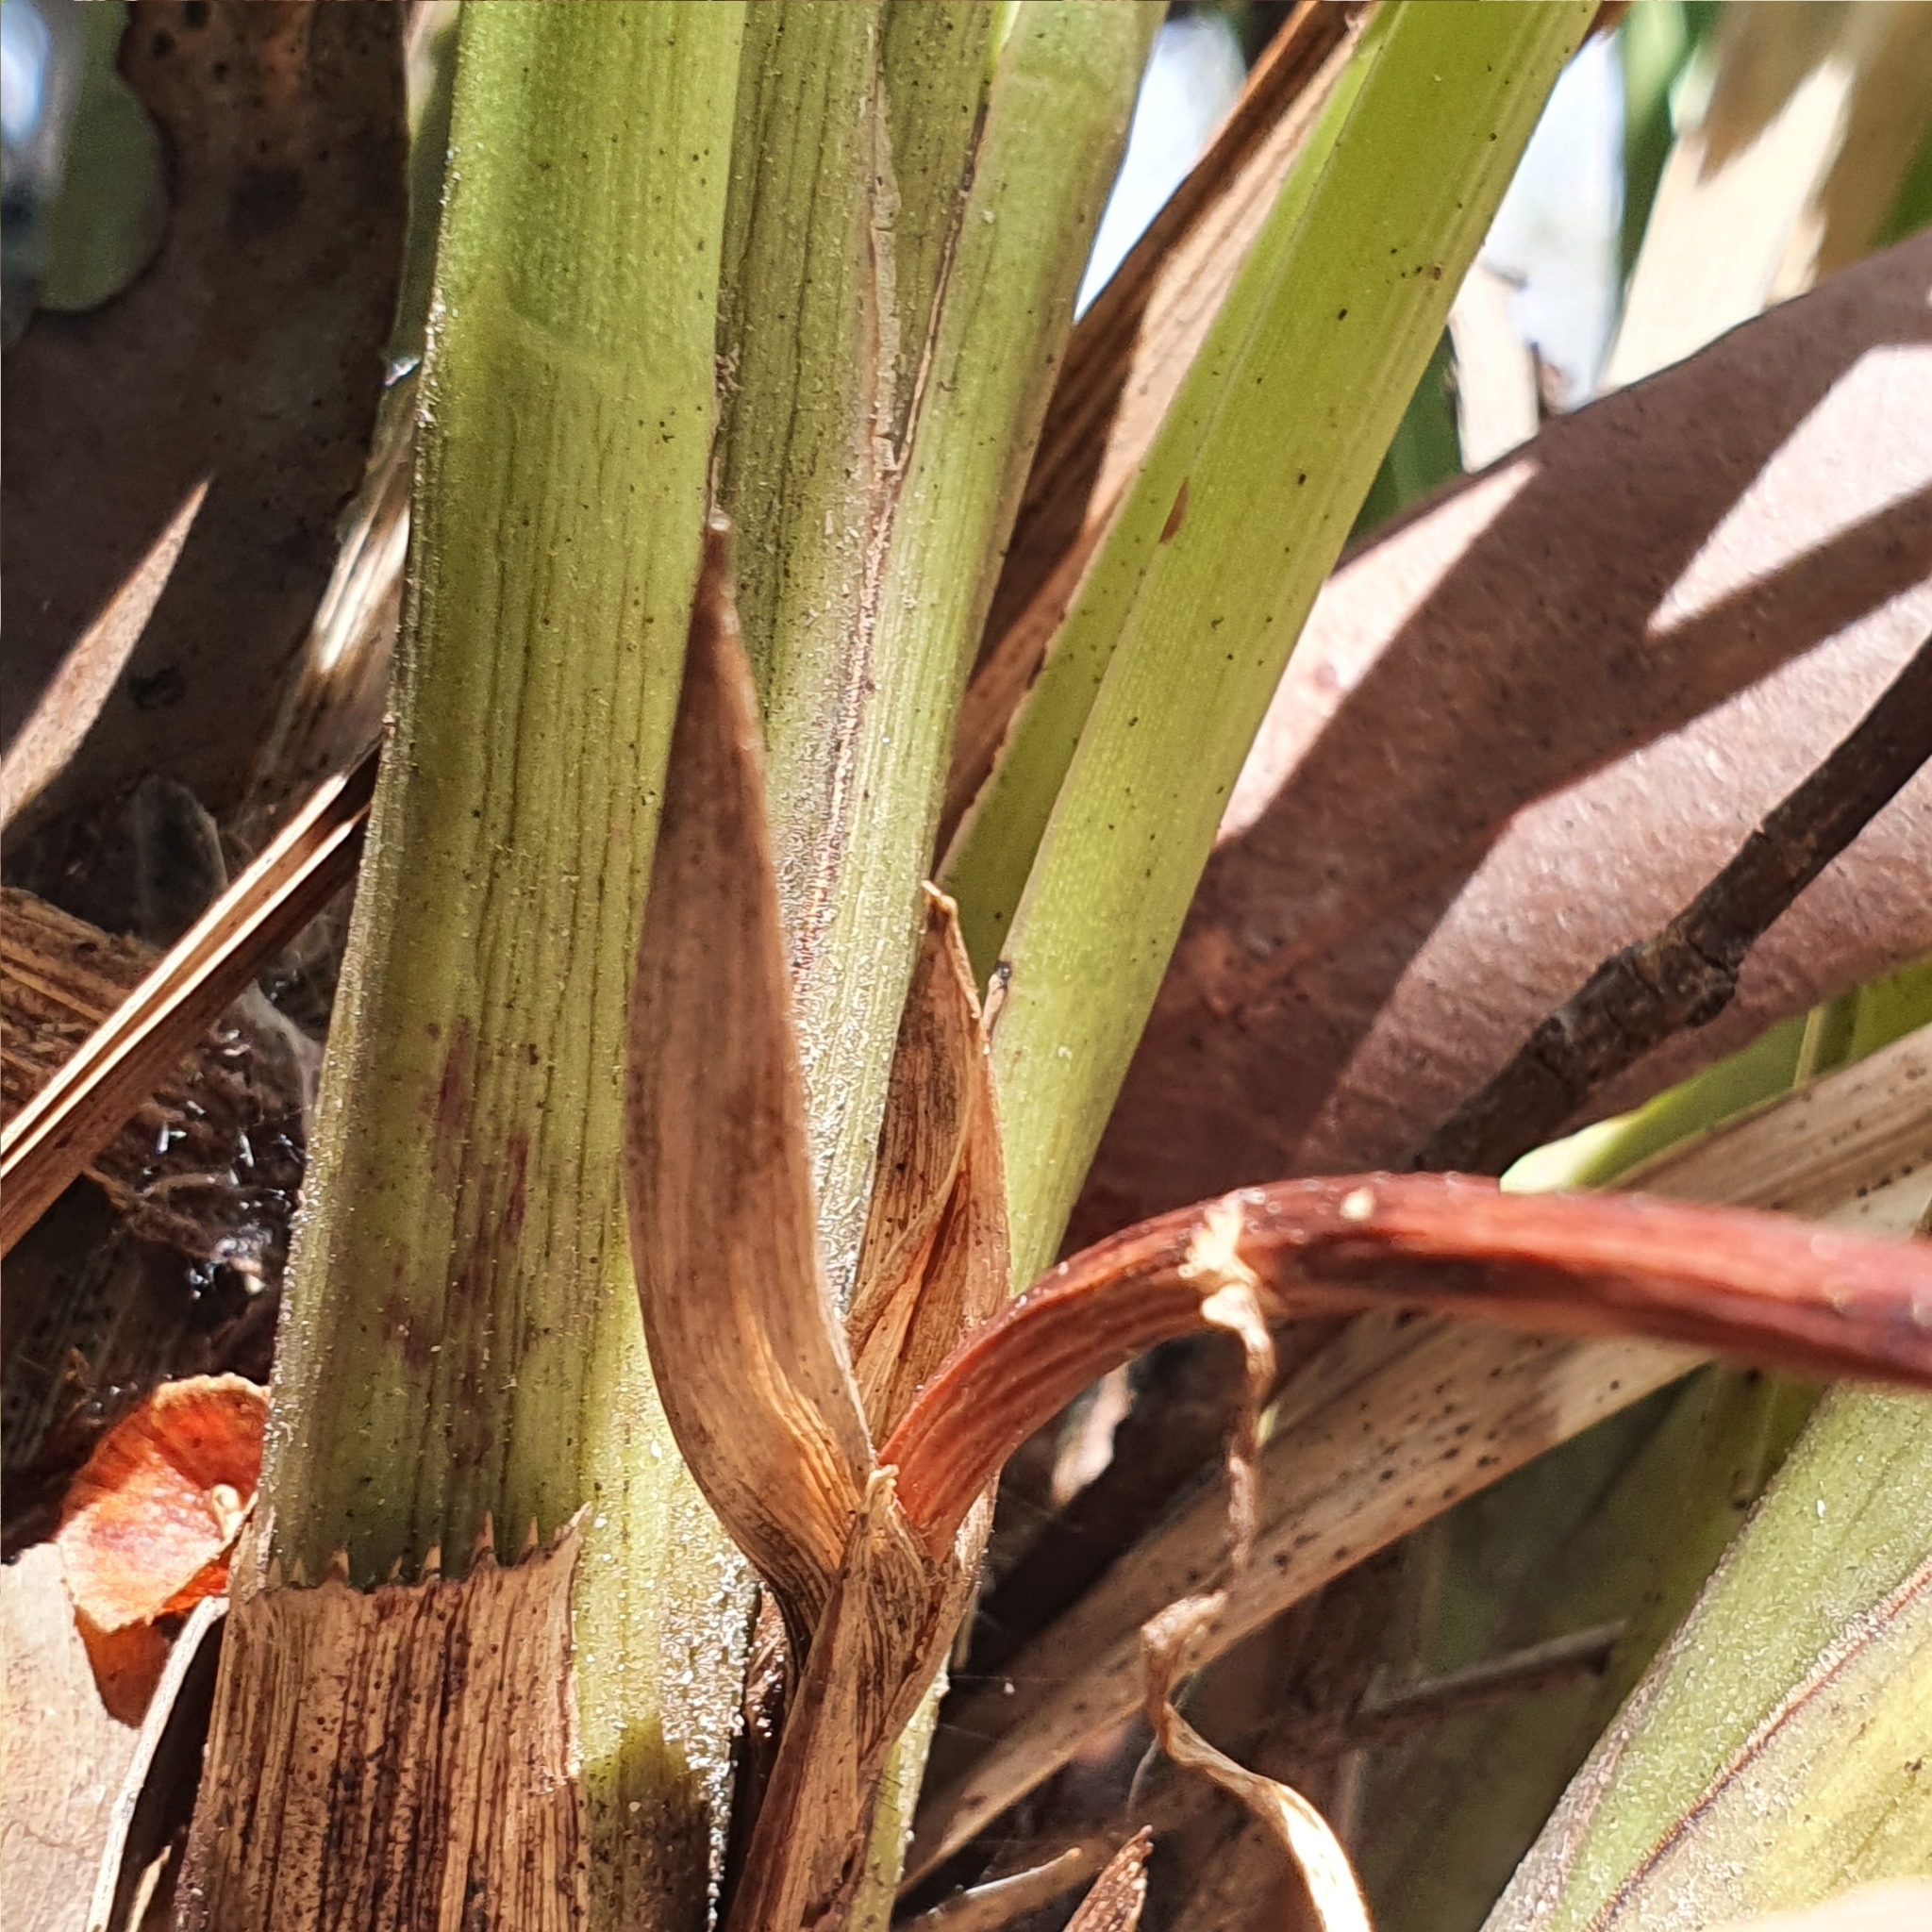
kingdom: Plantae
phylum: Tracheophyta
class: Liliopsida
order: Asparagales
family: Orchidaceae
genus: Cymbidium
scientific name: Cymbidium suave
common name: Snake orchid
